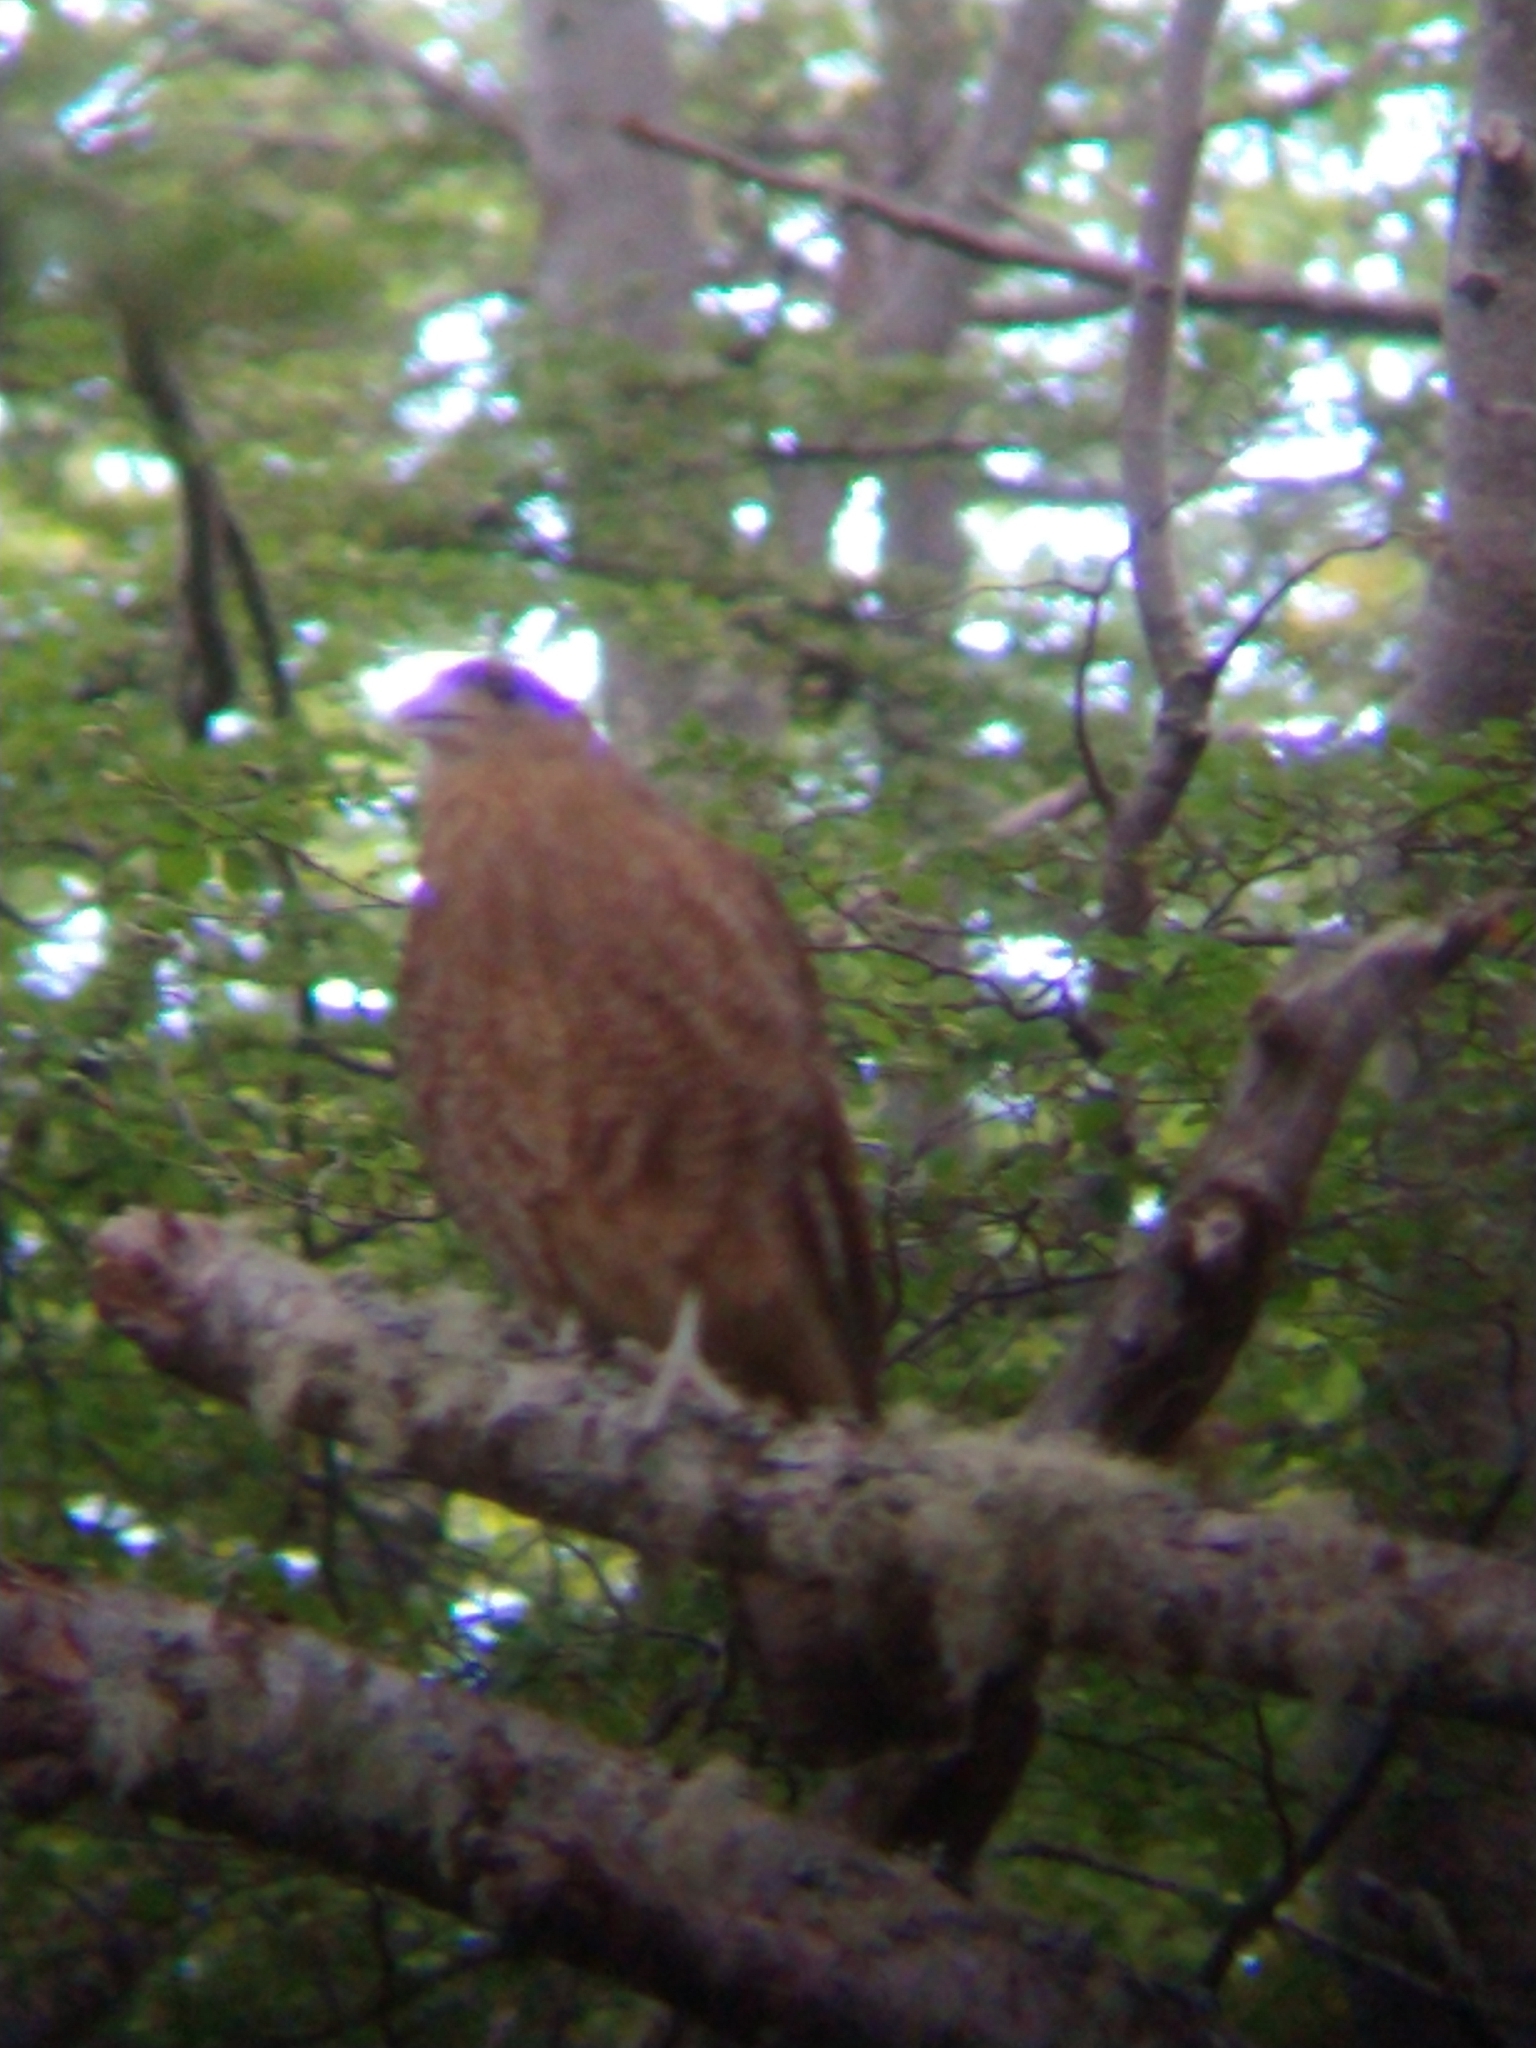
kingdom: Animalia
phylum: Chordata
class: Aves
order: Falconiformes
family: Falconidae
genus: Daptrius
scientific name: Daptrius
